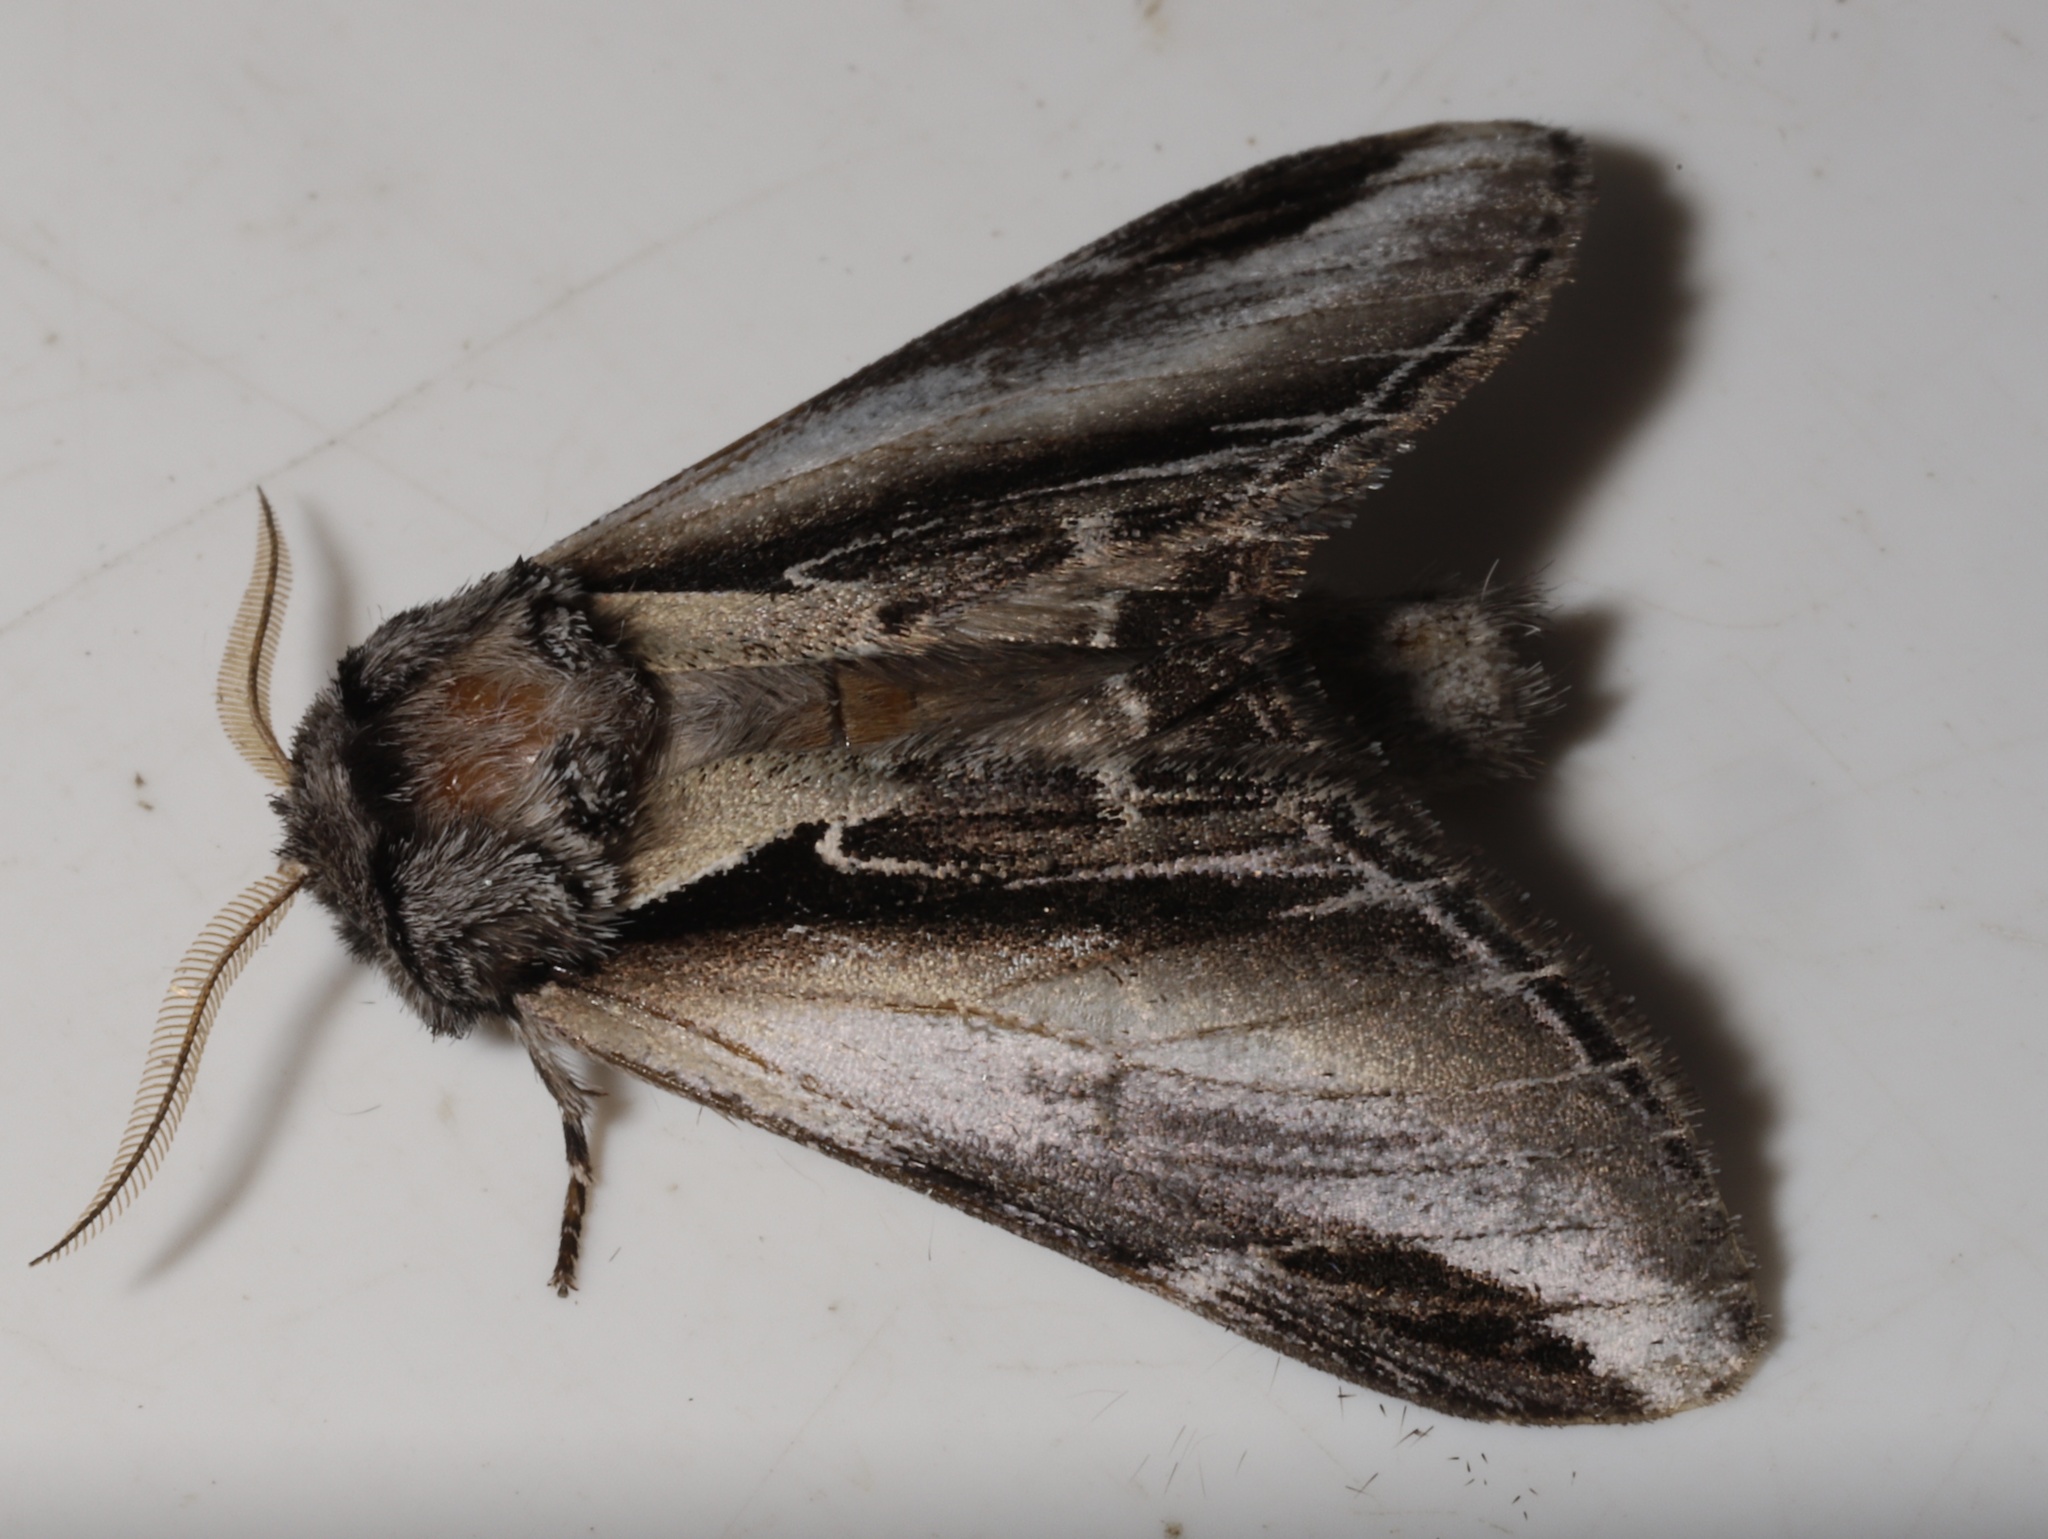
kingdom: Animalia
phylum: Arthropoda
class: Insecta
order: Lepidoptera
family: Notodontidae
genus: Pheosia
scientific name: Pheosia rimosa
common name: Black-rimmed prominent
